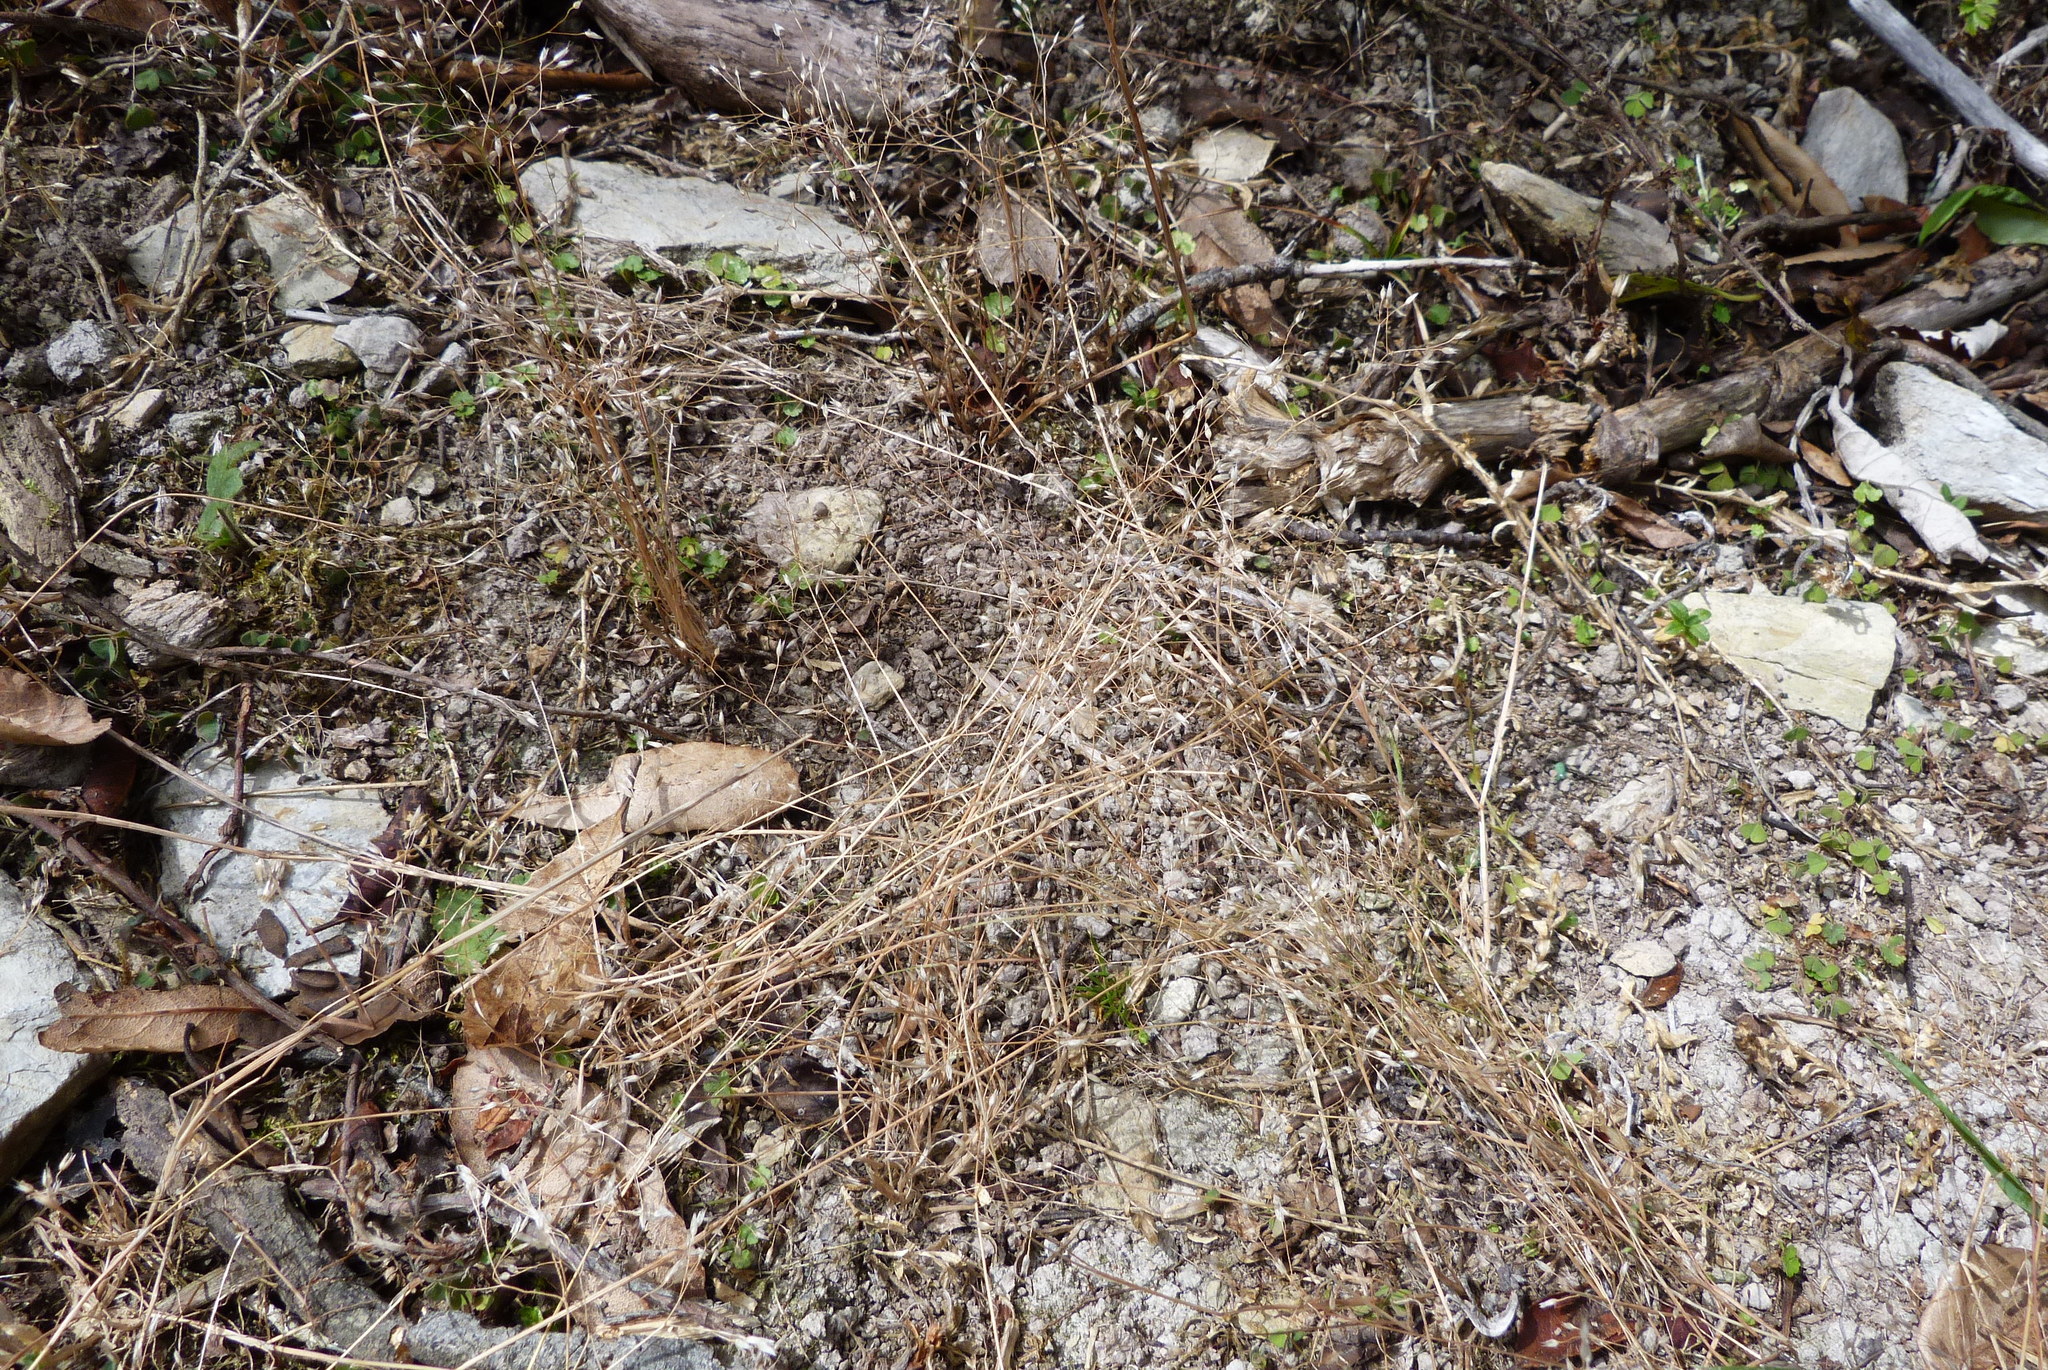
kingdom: Plantae
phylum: Tracheophyta
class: Liliopsida
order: Poales
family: Poaceae
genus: Aira
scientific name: Aira caryophyllea
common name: Silver hairgrass
